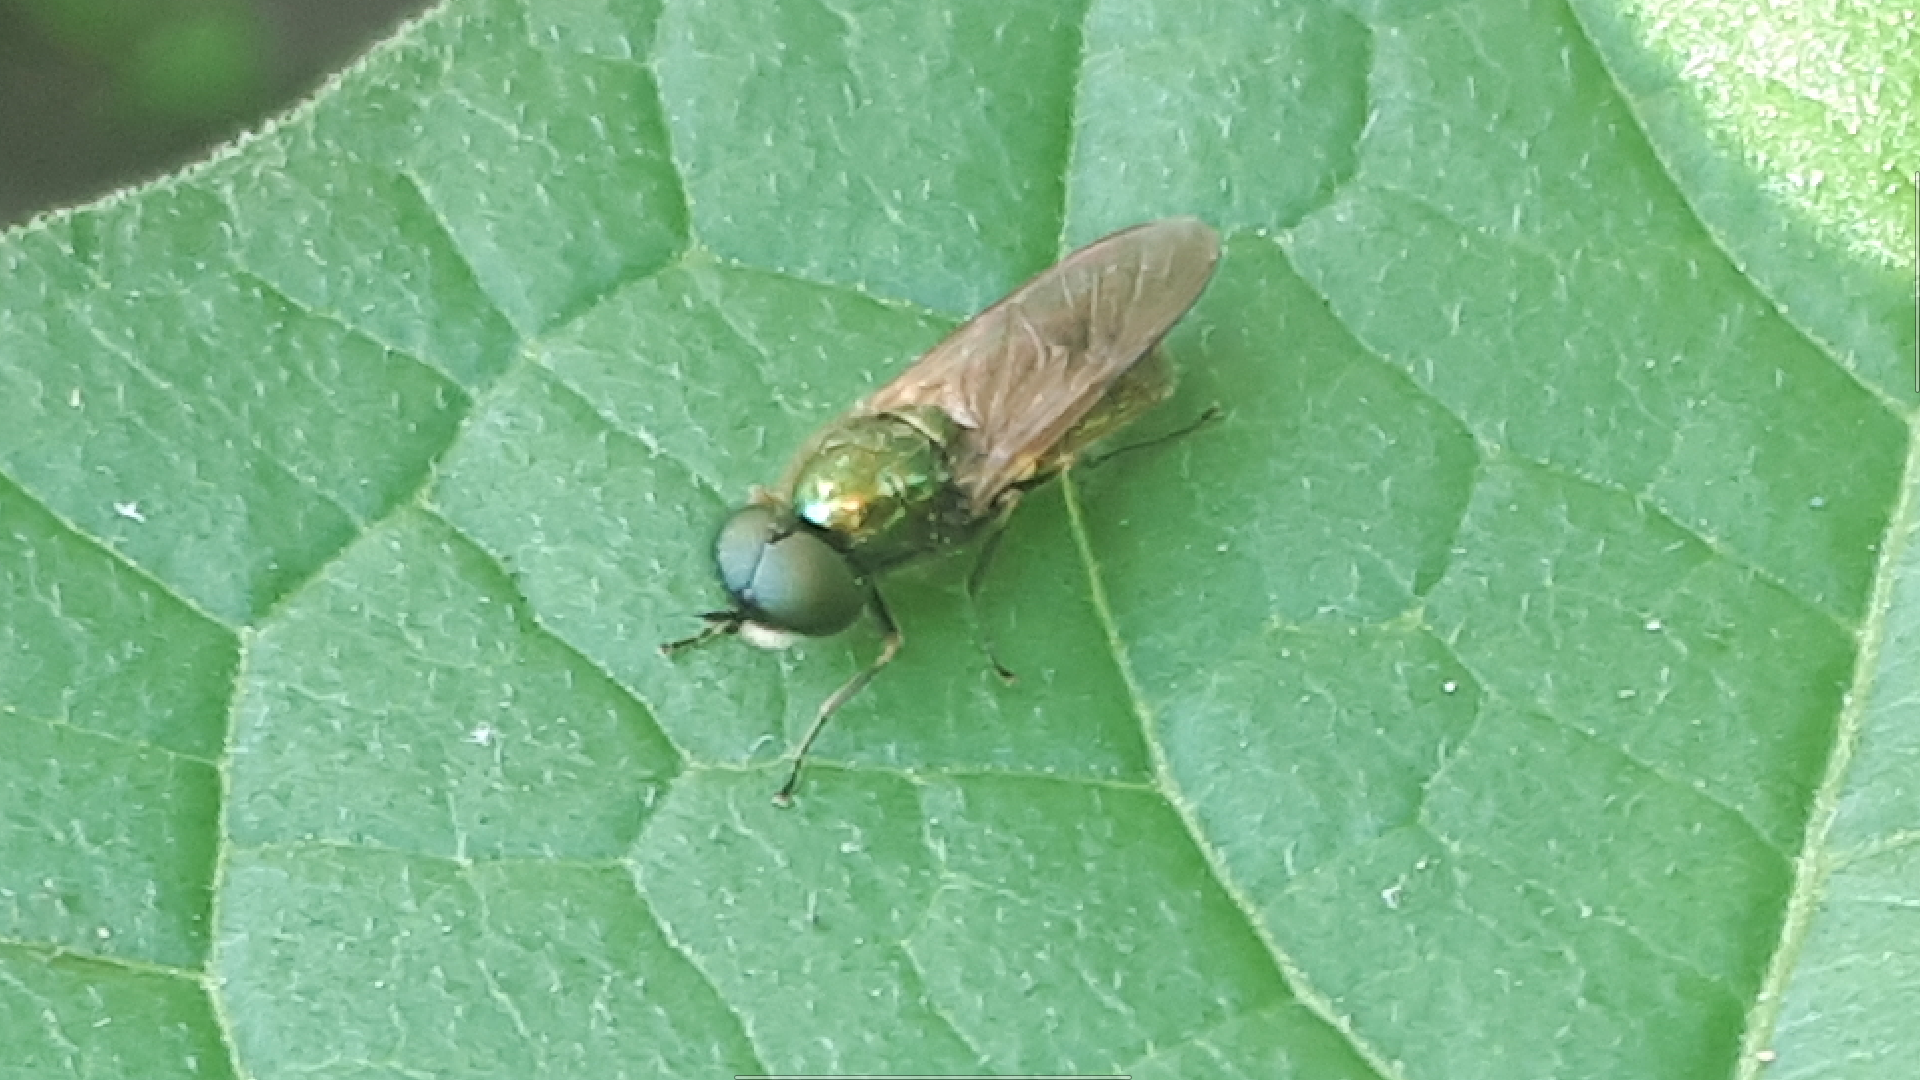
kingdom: Animalia
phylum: Arthropoda
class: Insecta
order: Diptera
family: Stratiomyidae
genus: Chloromyia
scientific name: Chloromyia formosa
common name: Soldier fly
